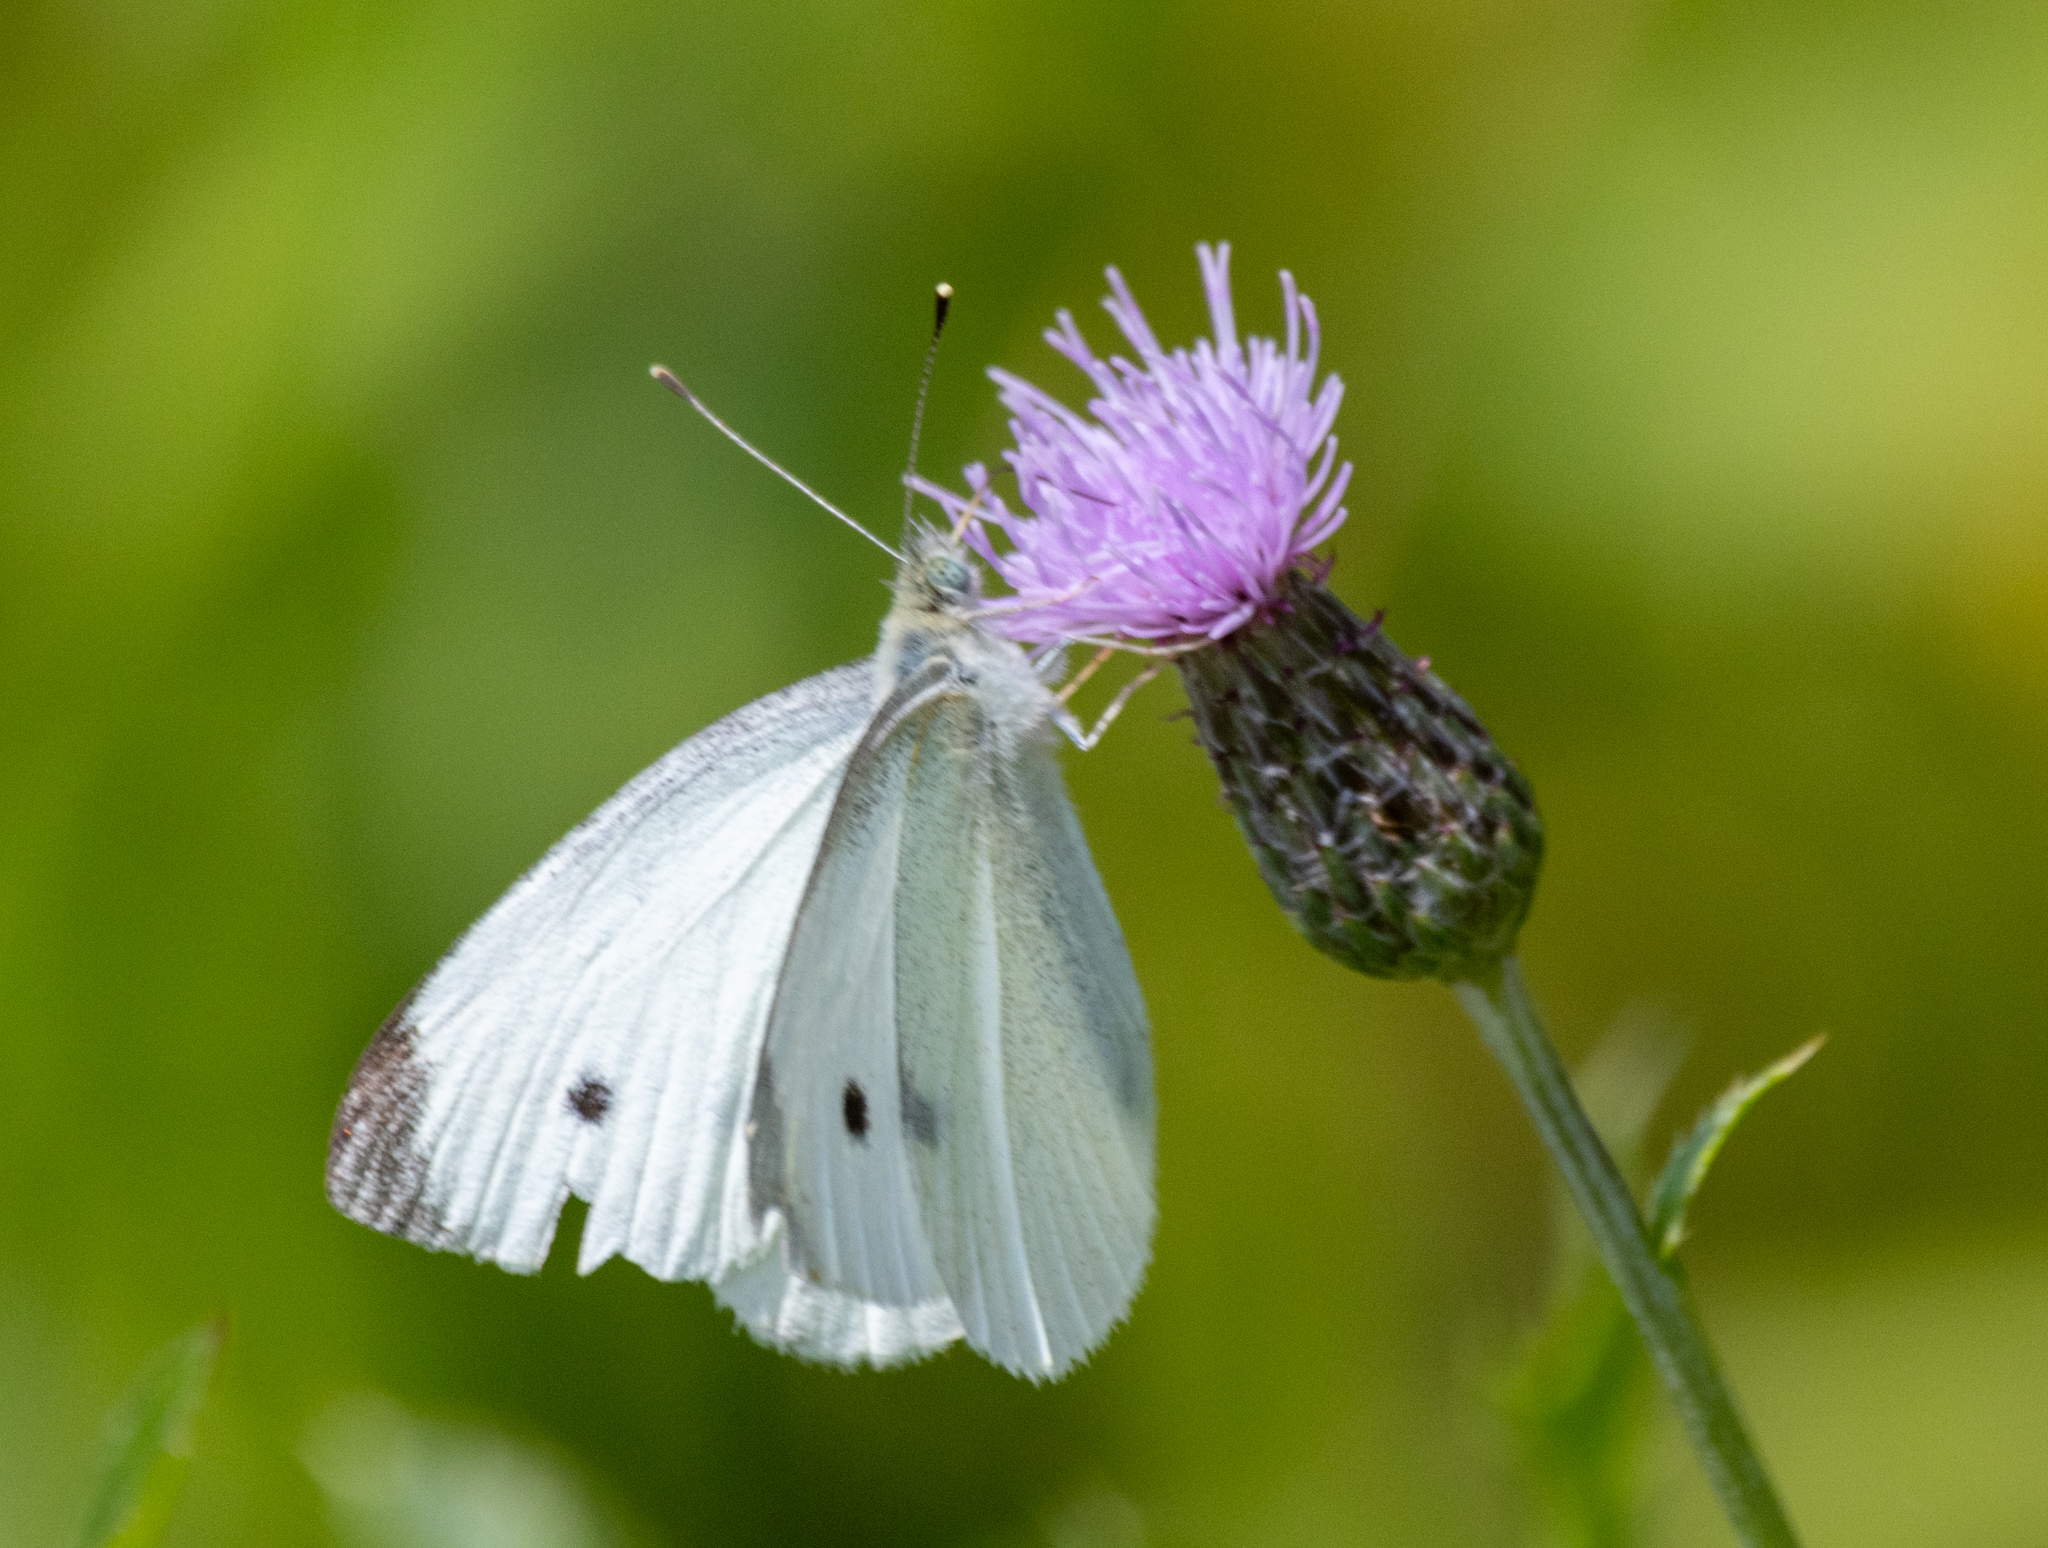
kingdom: Animalia
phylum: Arthropoda
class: Insecta
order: Lepidoptera
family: Pieridae
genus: Pieris
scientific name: Pieris rapae
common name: Small white
